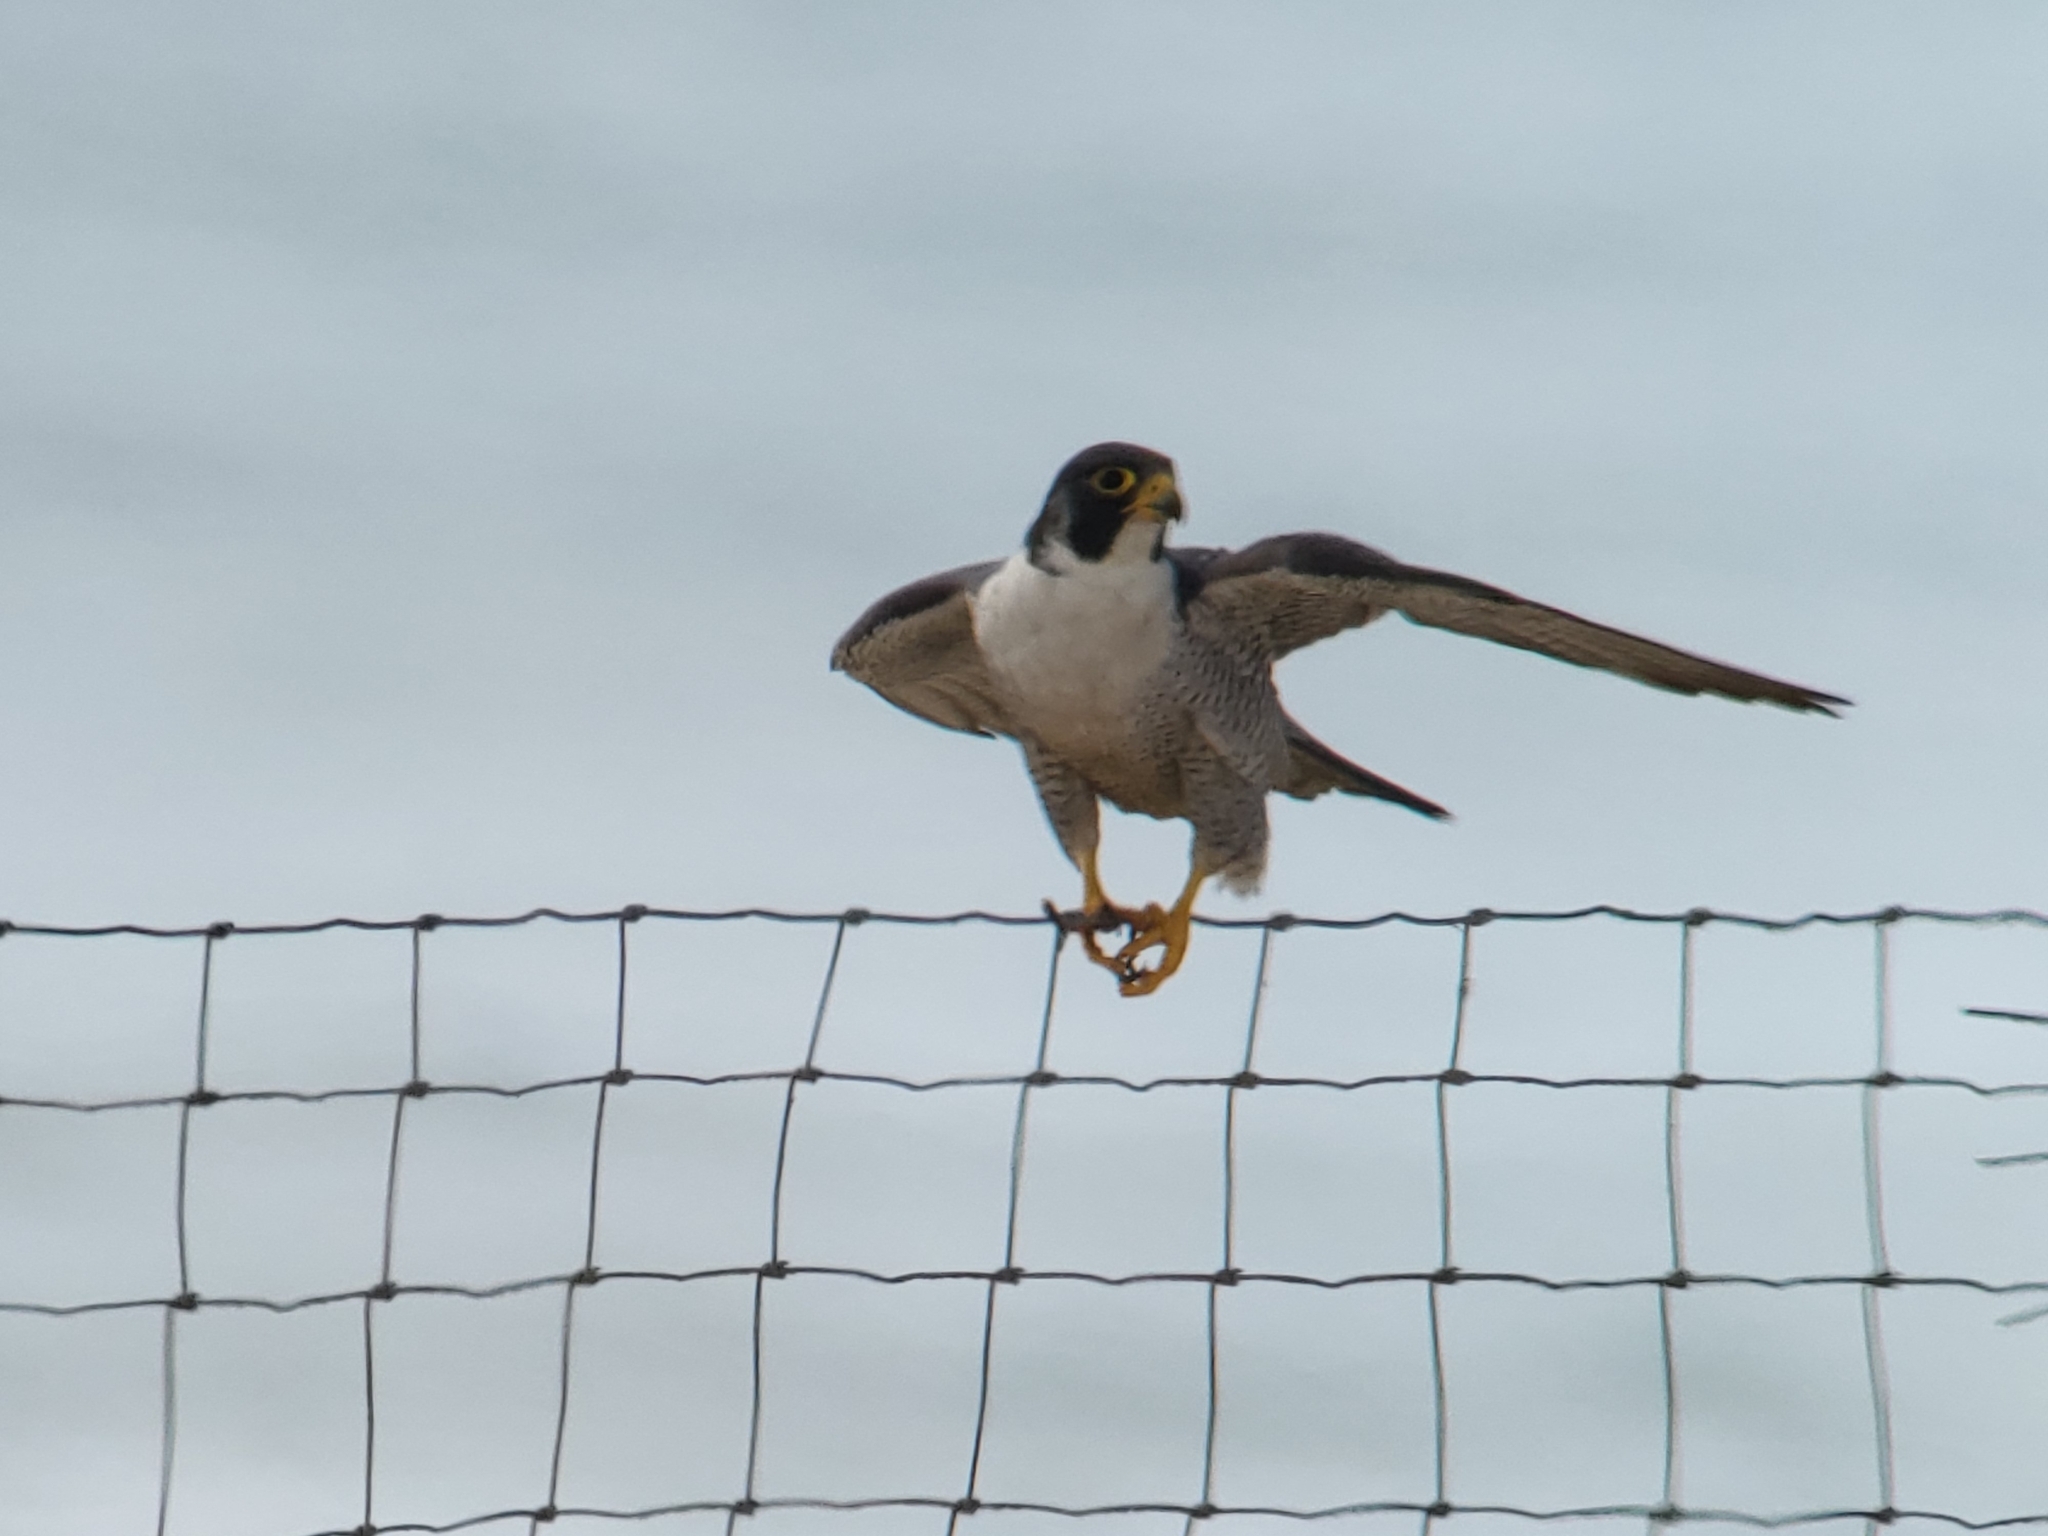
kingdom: Animalia
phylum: Chordata
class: Aves
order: Falconiformes
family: Falconidae
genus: Falco
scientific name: Falco peregrinus
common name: Peregrine falcon
